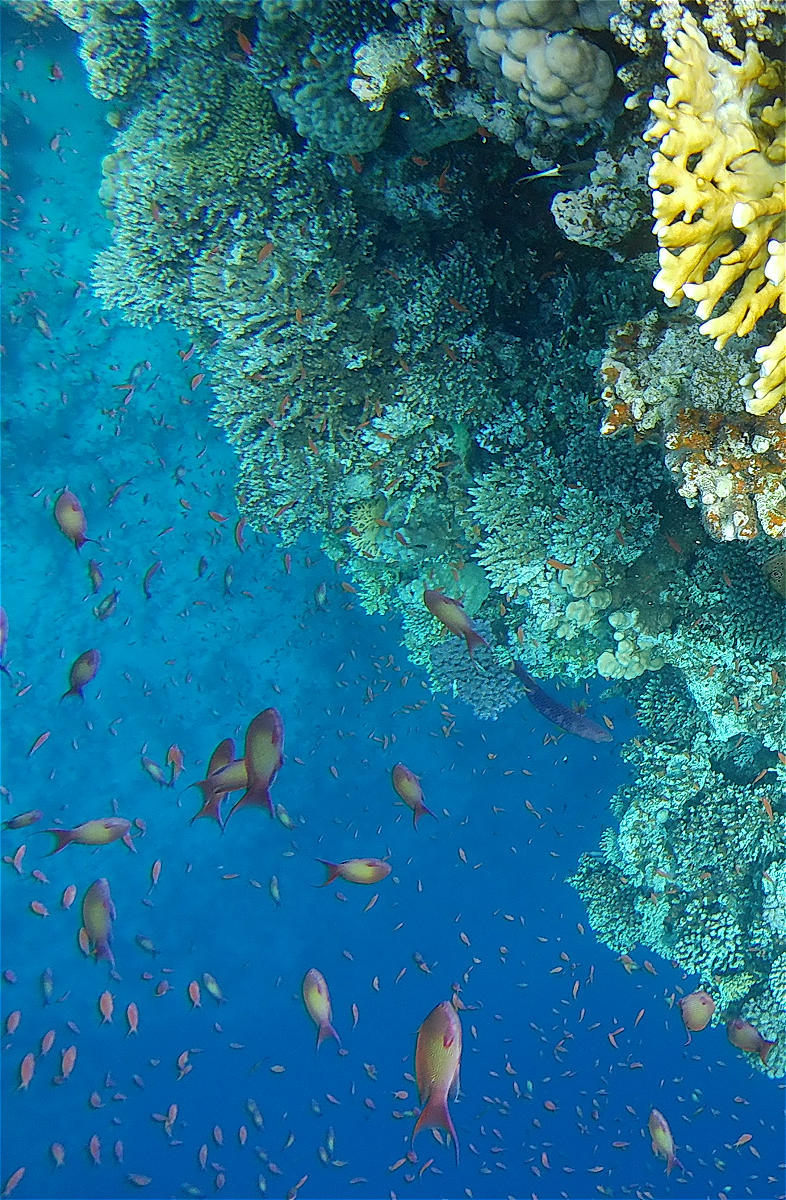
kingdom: Animalia
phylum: Chordata
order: Perciformes
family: Serranidae
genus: Pseudanthias
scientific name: Pseudanthias squamipinnis
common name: Scalefin anthias
